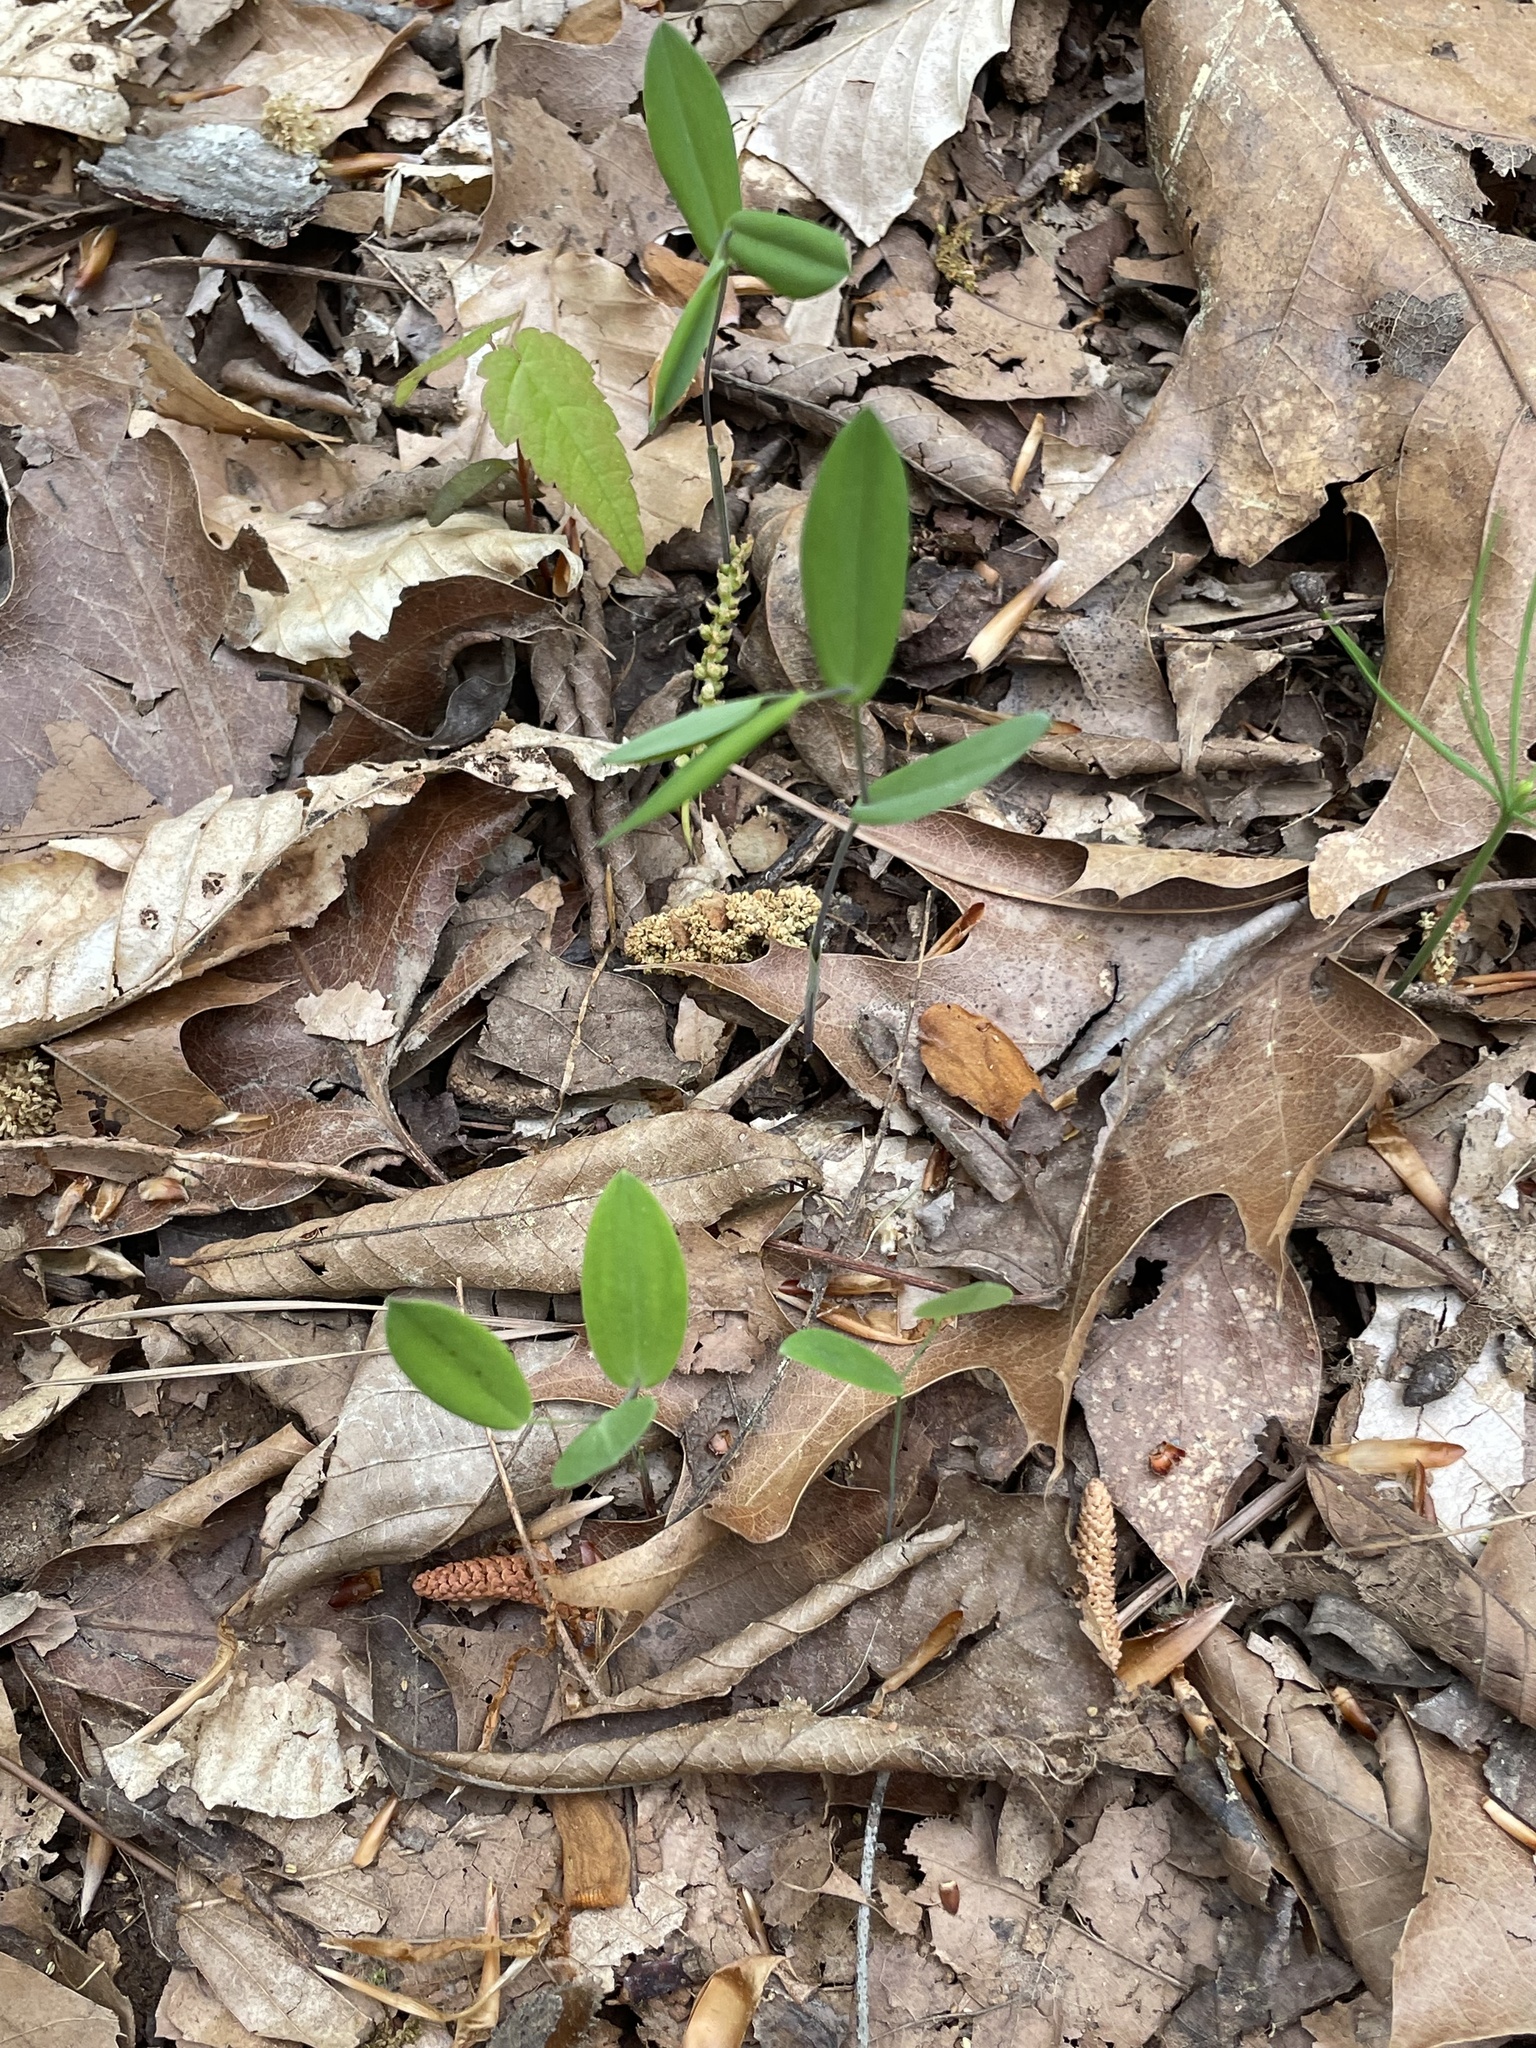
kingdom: Plantae
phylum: Tracheophyta
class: Liliopsida
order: Liliales
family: Colchicaceae
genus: Uvularia
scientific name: Uvularia perfoliata
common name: Perfoliate bellwort
